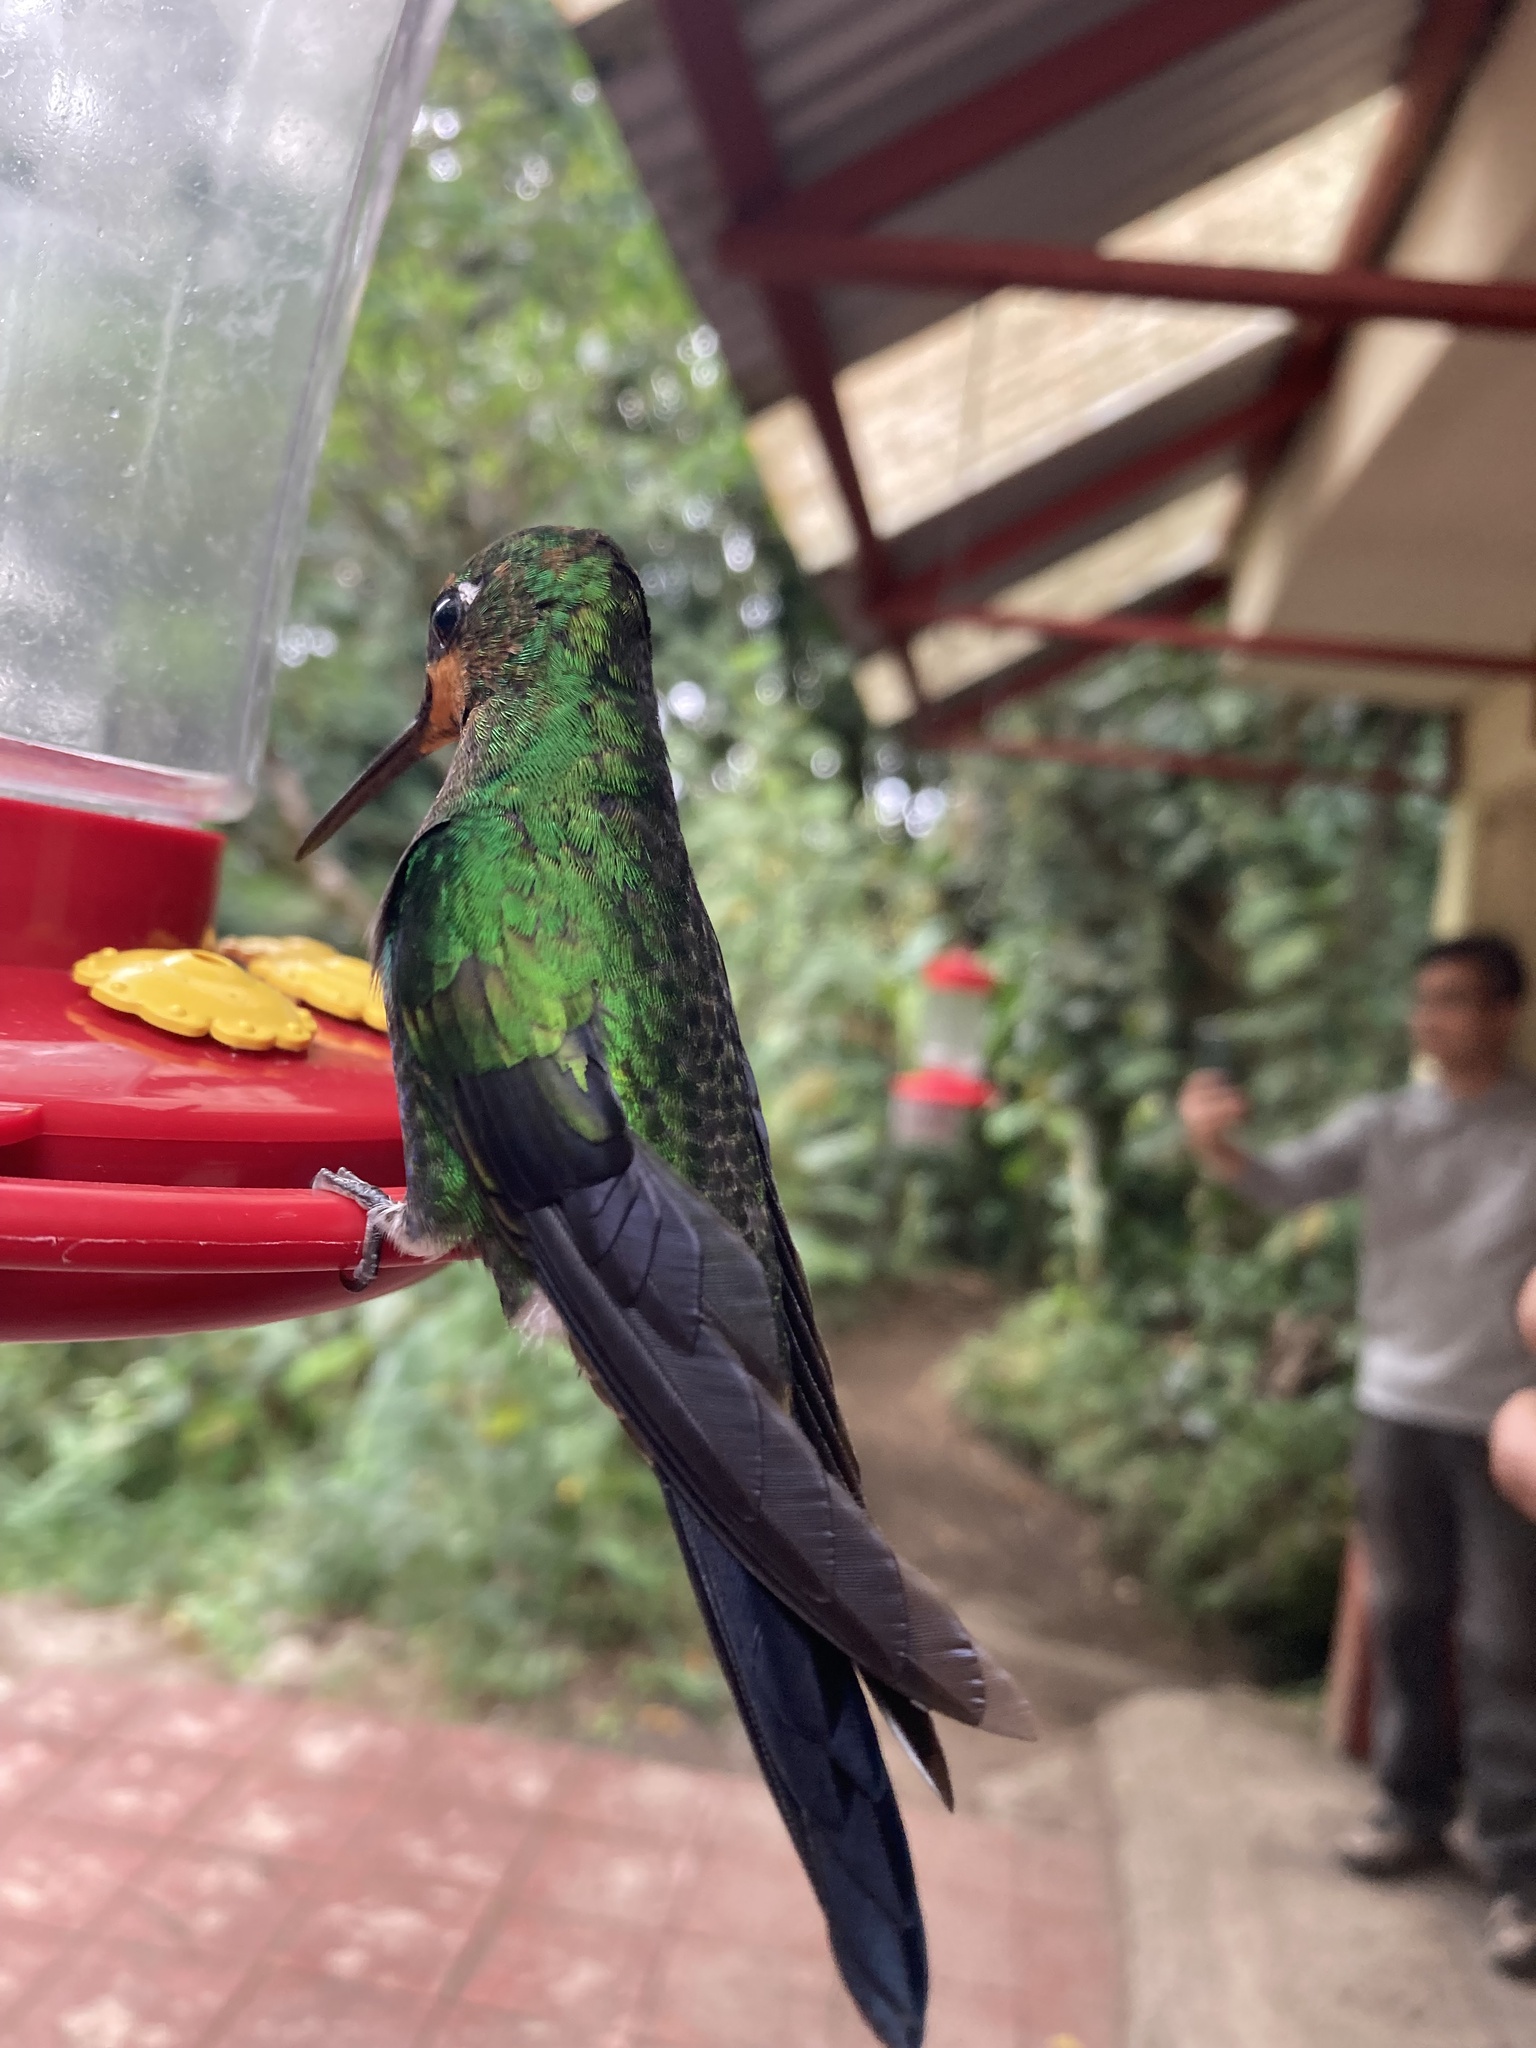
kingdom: Animalia
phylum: Chordata
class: Aves
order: Apodiformes
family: Trochilidae
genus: Heliodoxa
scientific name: Heliodoxa jacula
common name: Green-crowned brilliant
